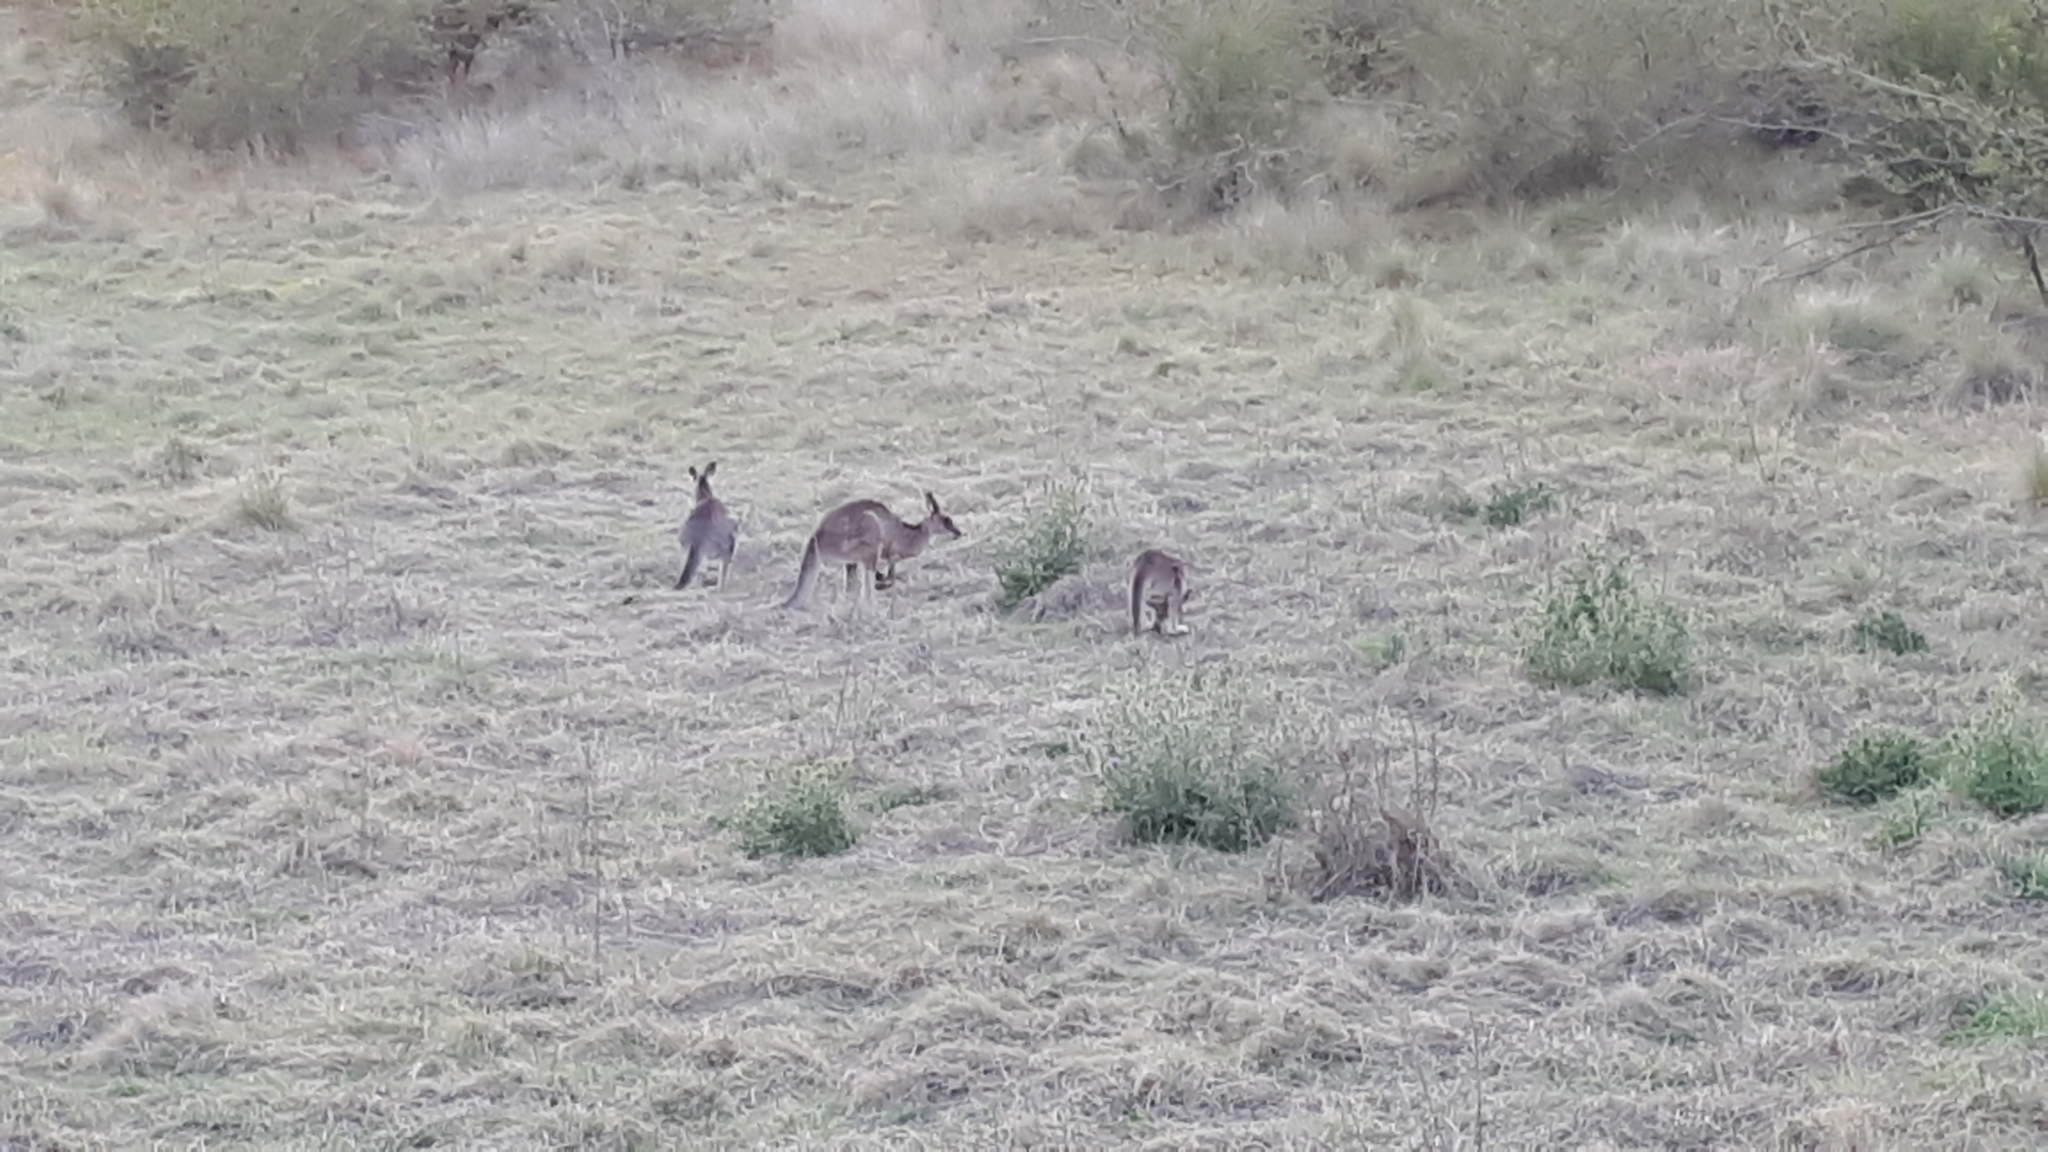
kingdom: Animalia
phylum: Chordata
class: Mammalia
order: Diprotodontia
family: Macropodidae
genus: Macropus
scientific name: Macropus giganteus
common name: Eastern grey kangaroo
